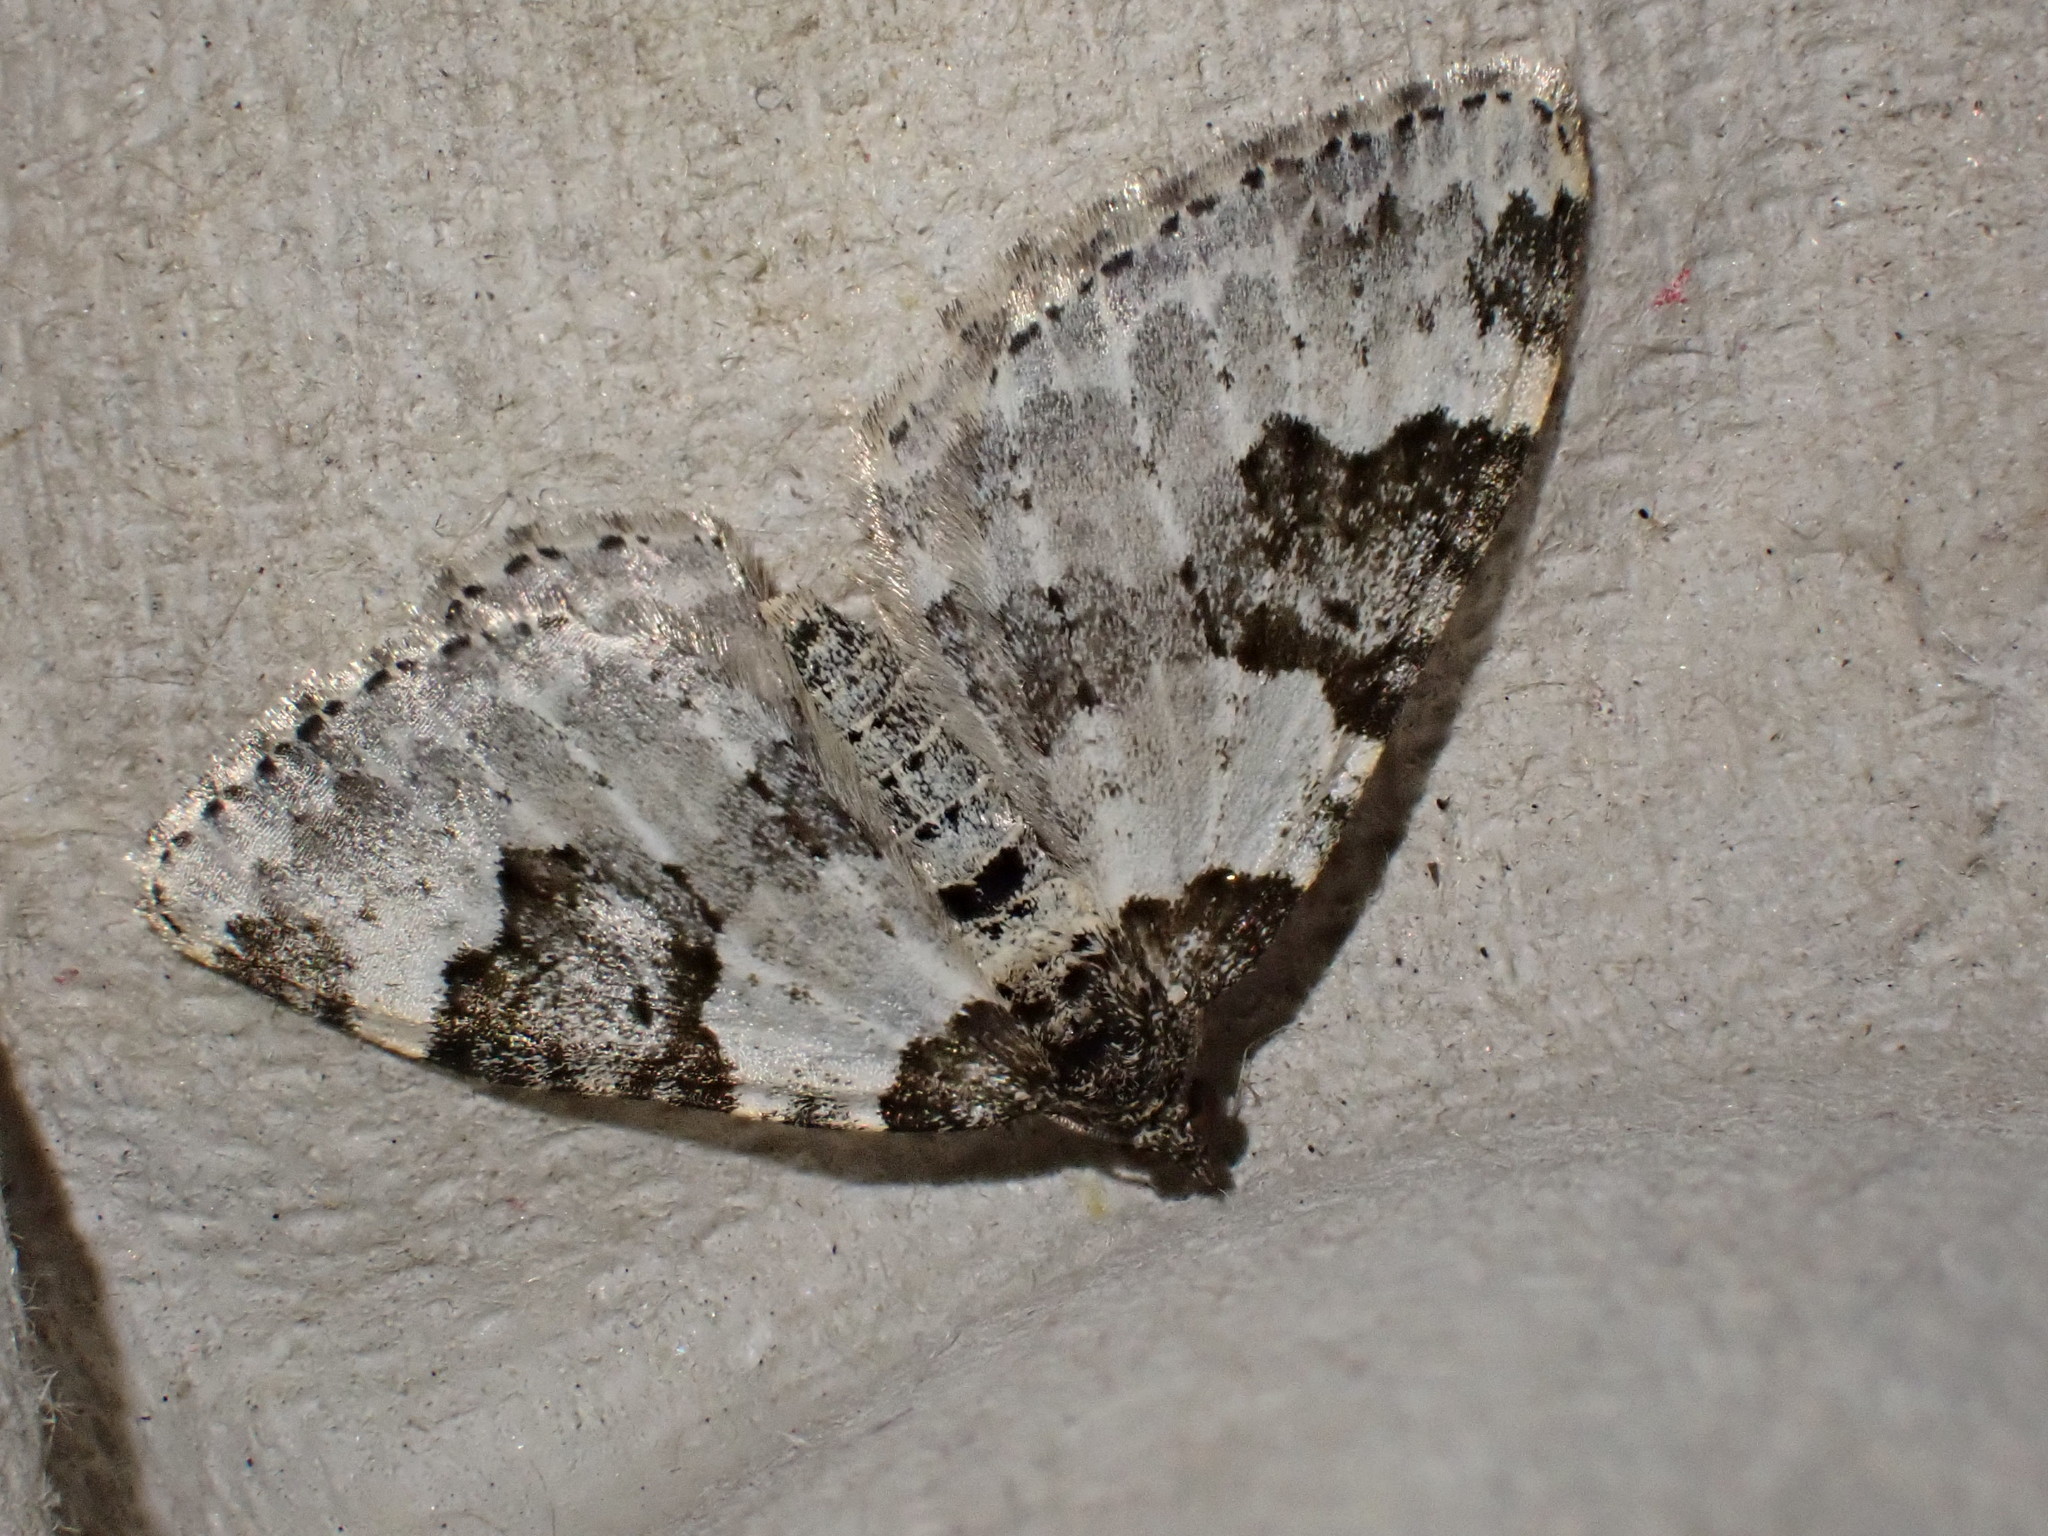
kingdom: Animalia
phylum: Arthropoda
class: Insecta
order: Lepidoptera
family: Geometridae
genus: Xanthorhoe
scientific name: Xanthorhoe fluctuata
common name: Garden carpet
